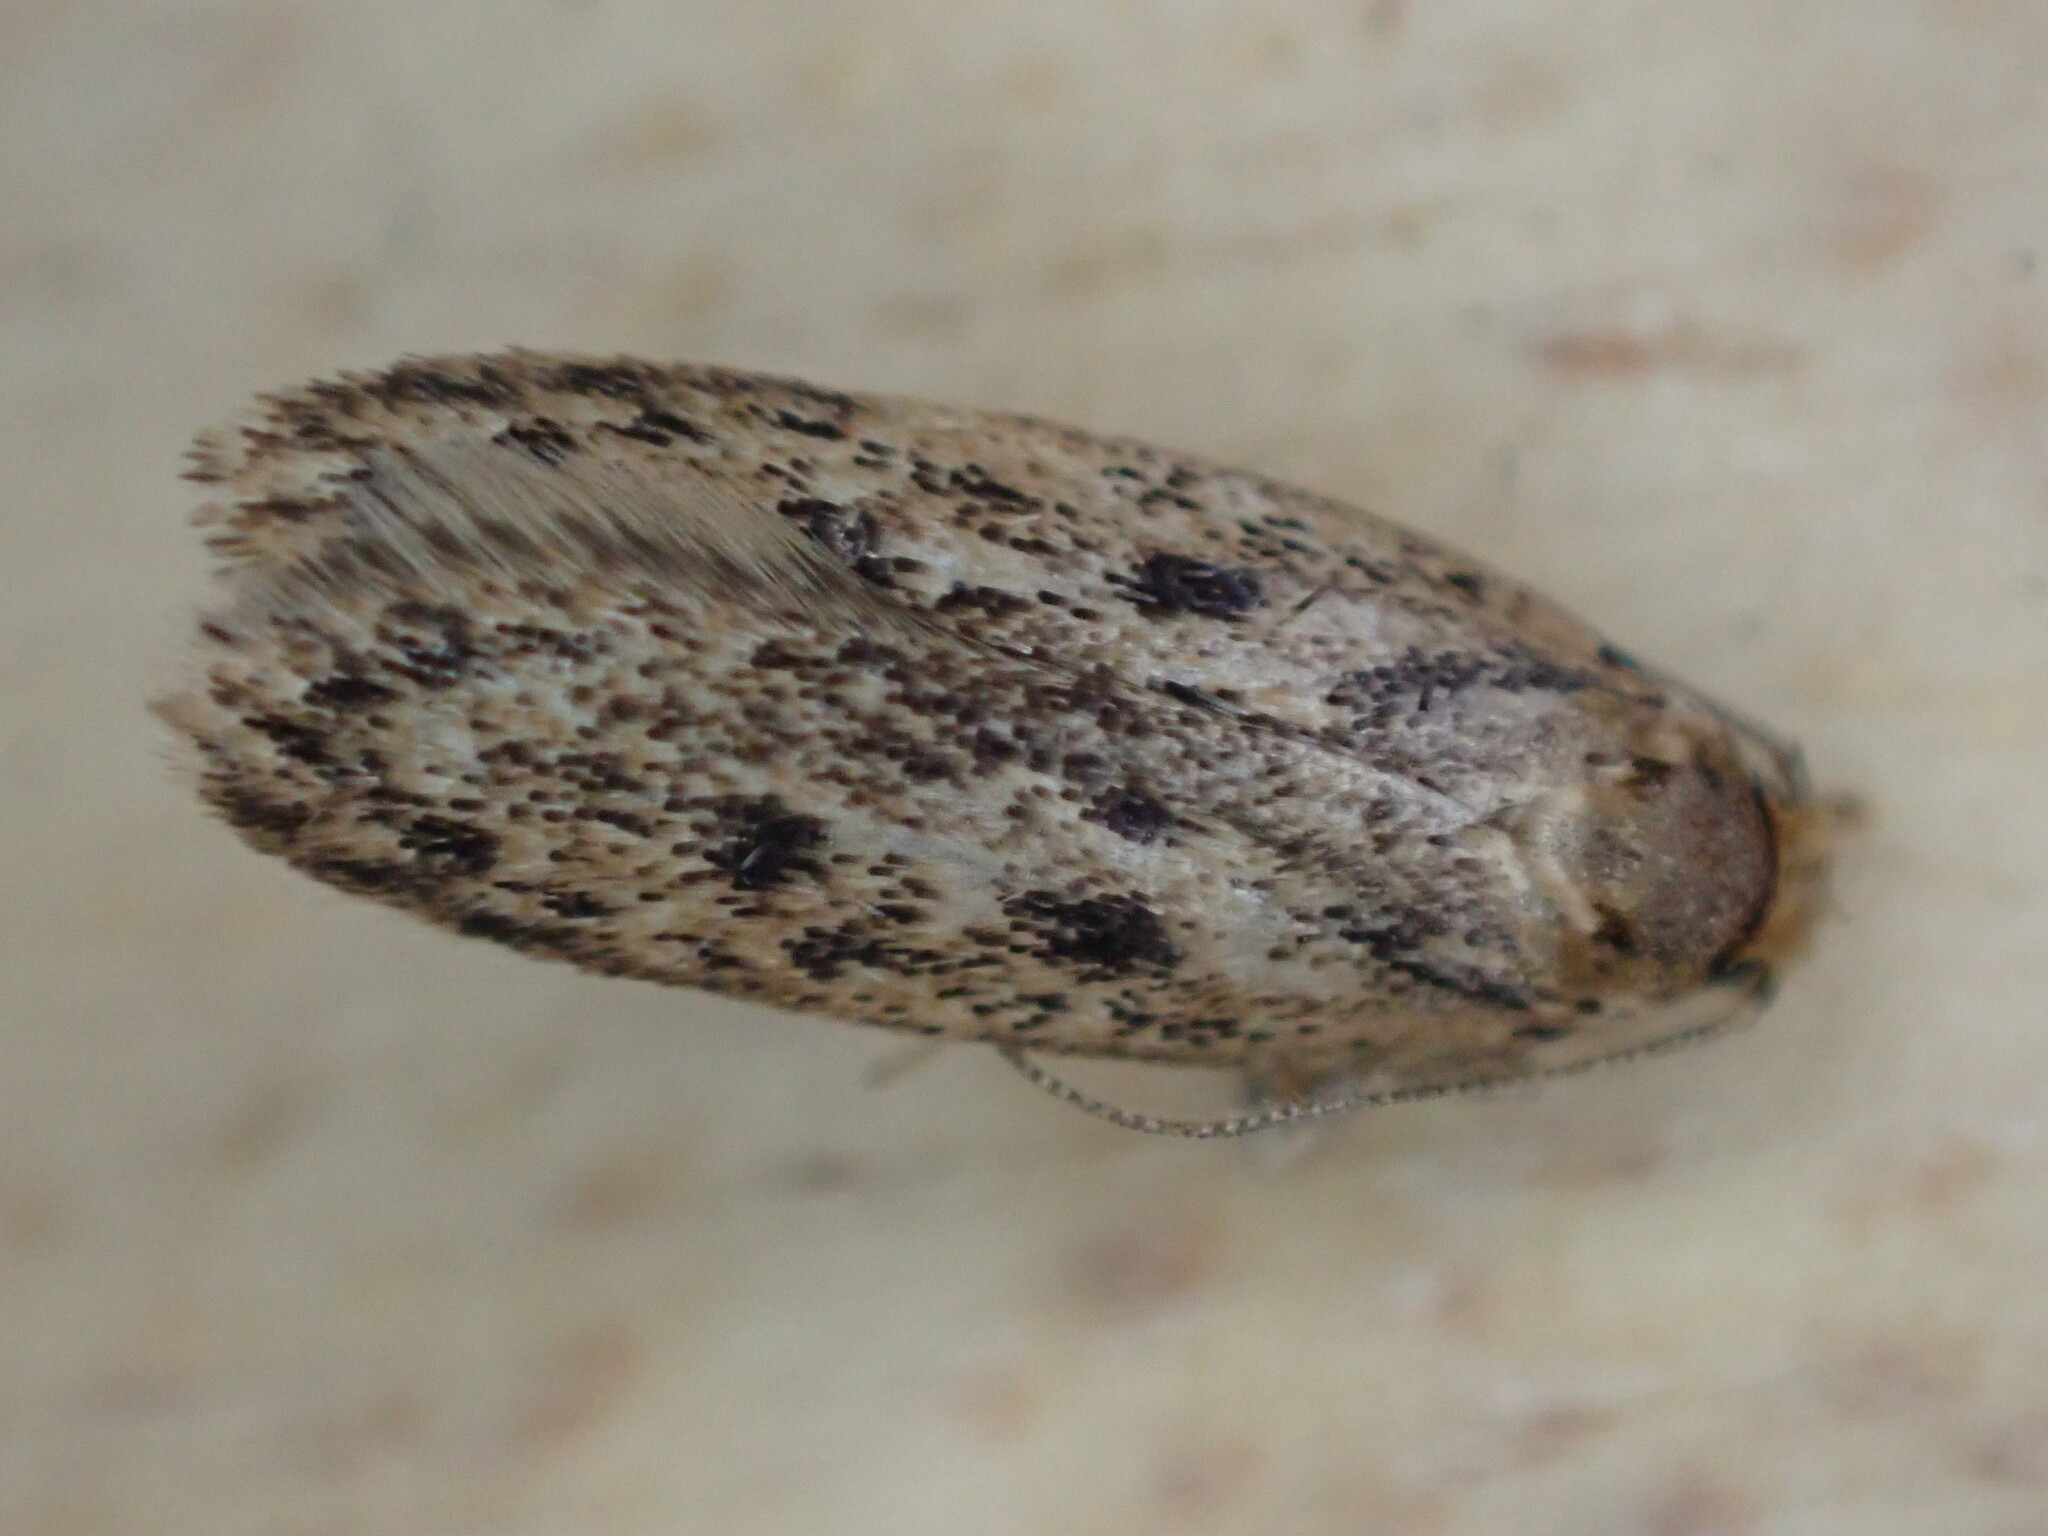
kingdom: Animalia
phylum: Arthropoda
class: Insecta
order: Lepidoptera
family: Oecophoridae
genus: Hofmannophila
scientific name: Hofmannophila pseudospretella
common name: Brown house moth
